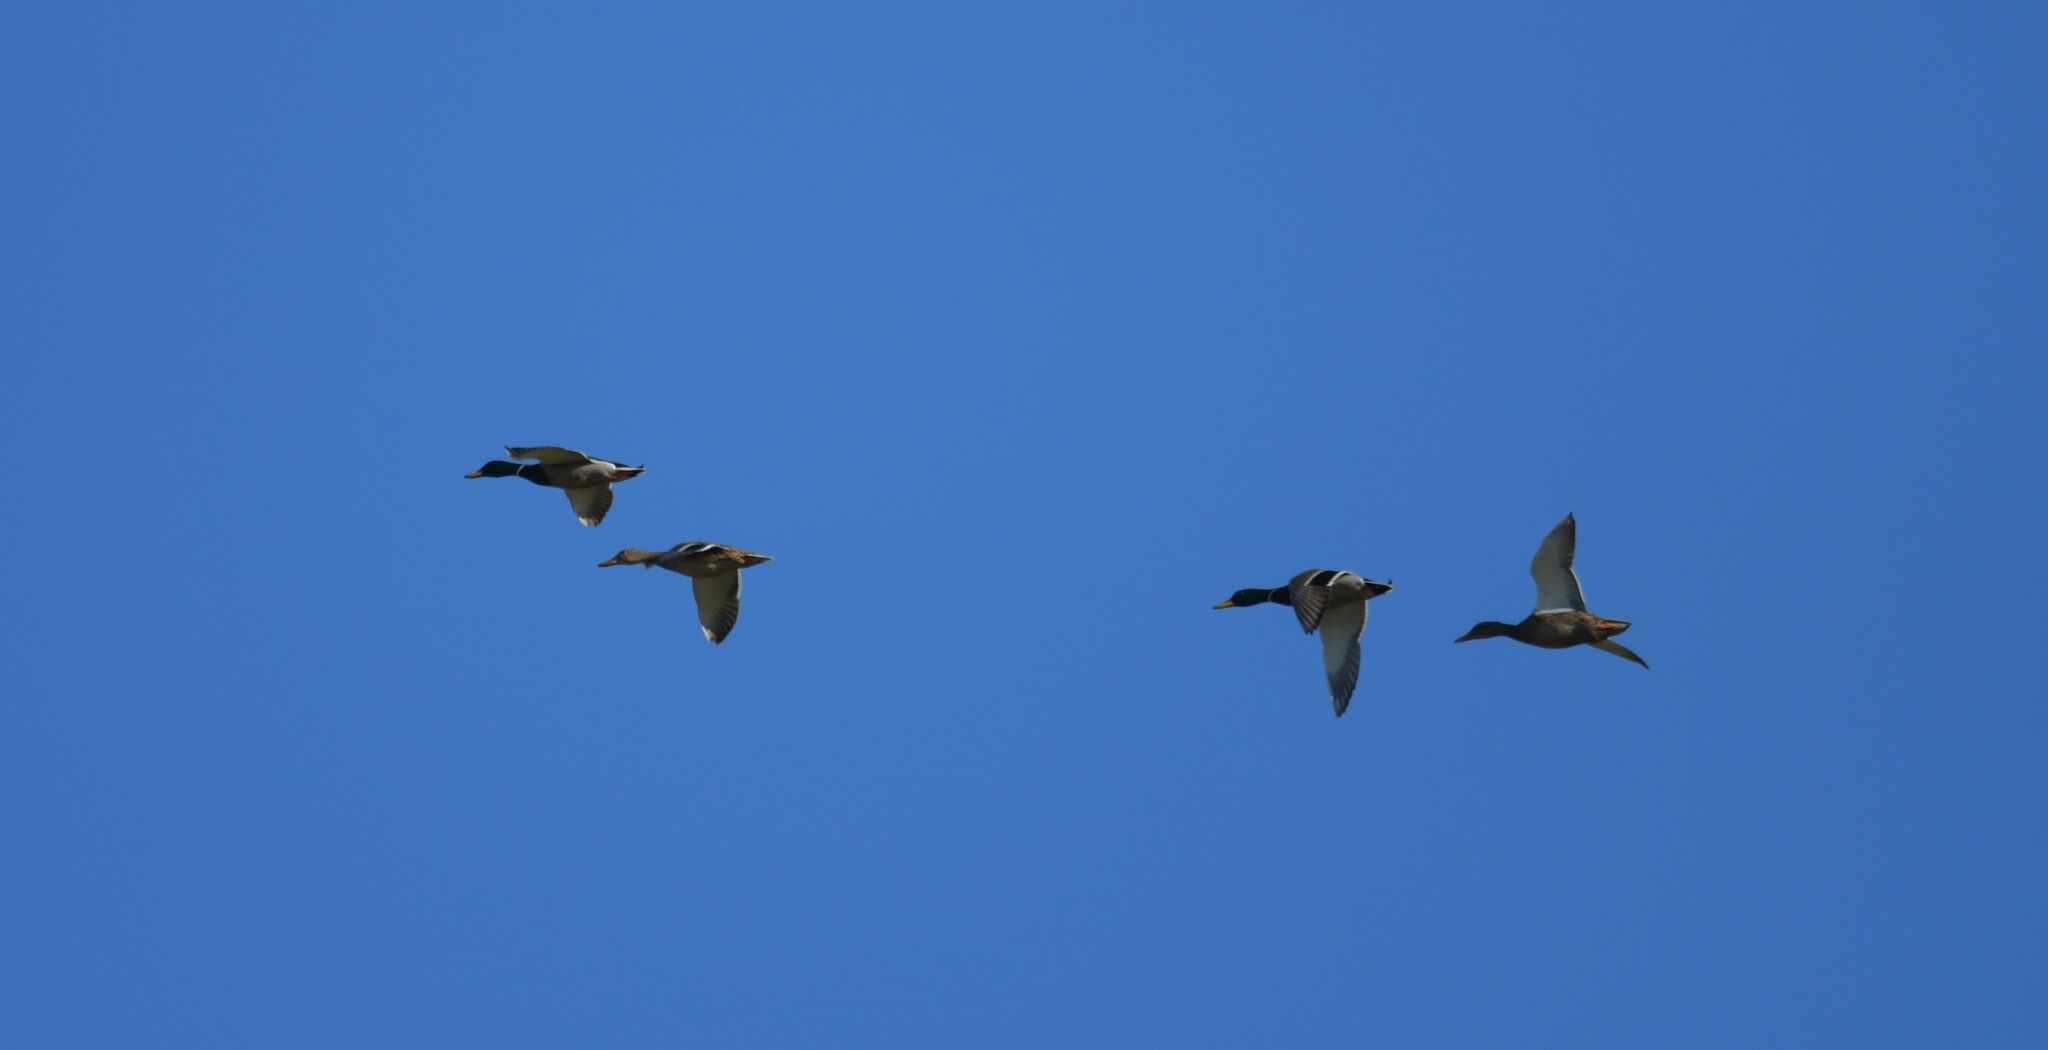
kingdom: Animalia
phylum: Chordata
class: Aves
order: Anseriformes
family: Anatidae
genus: Anas
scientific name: Anas platyrhynchos
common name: Mallard
